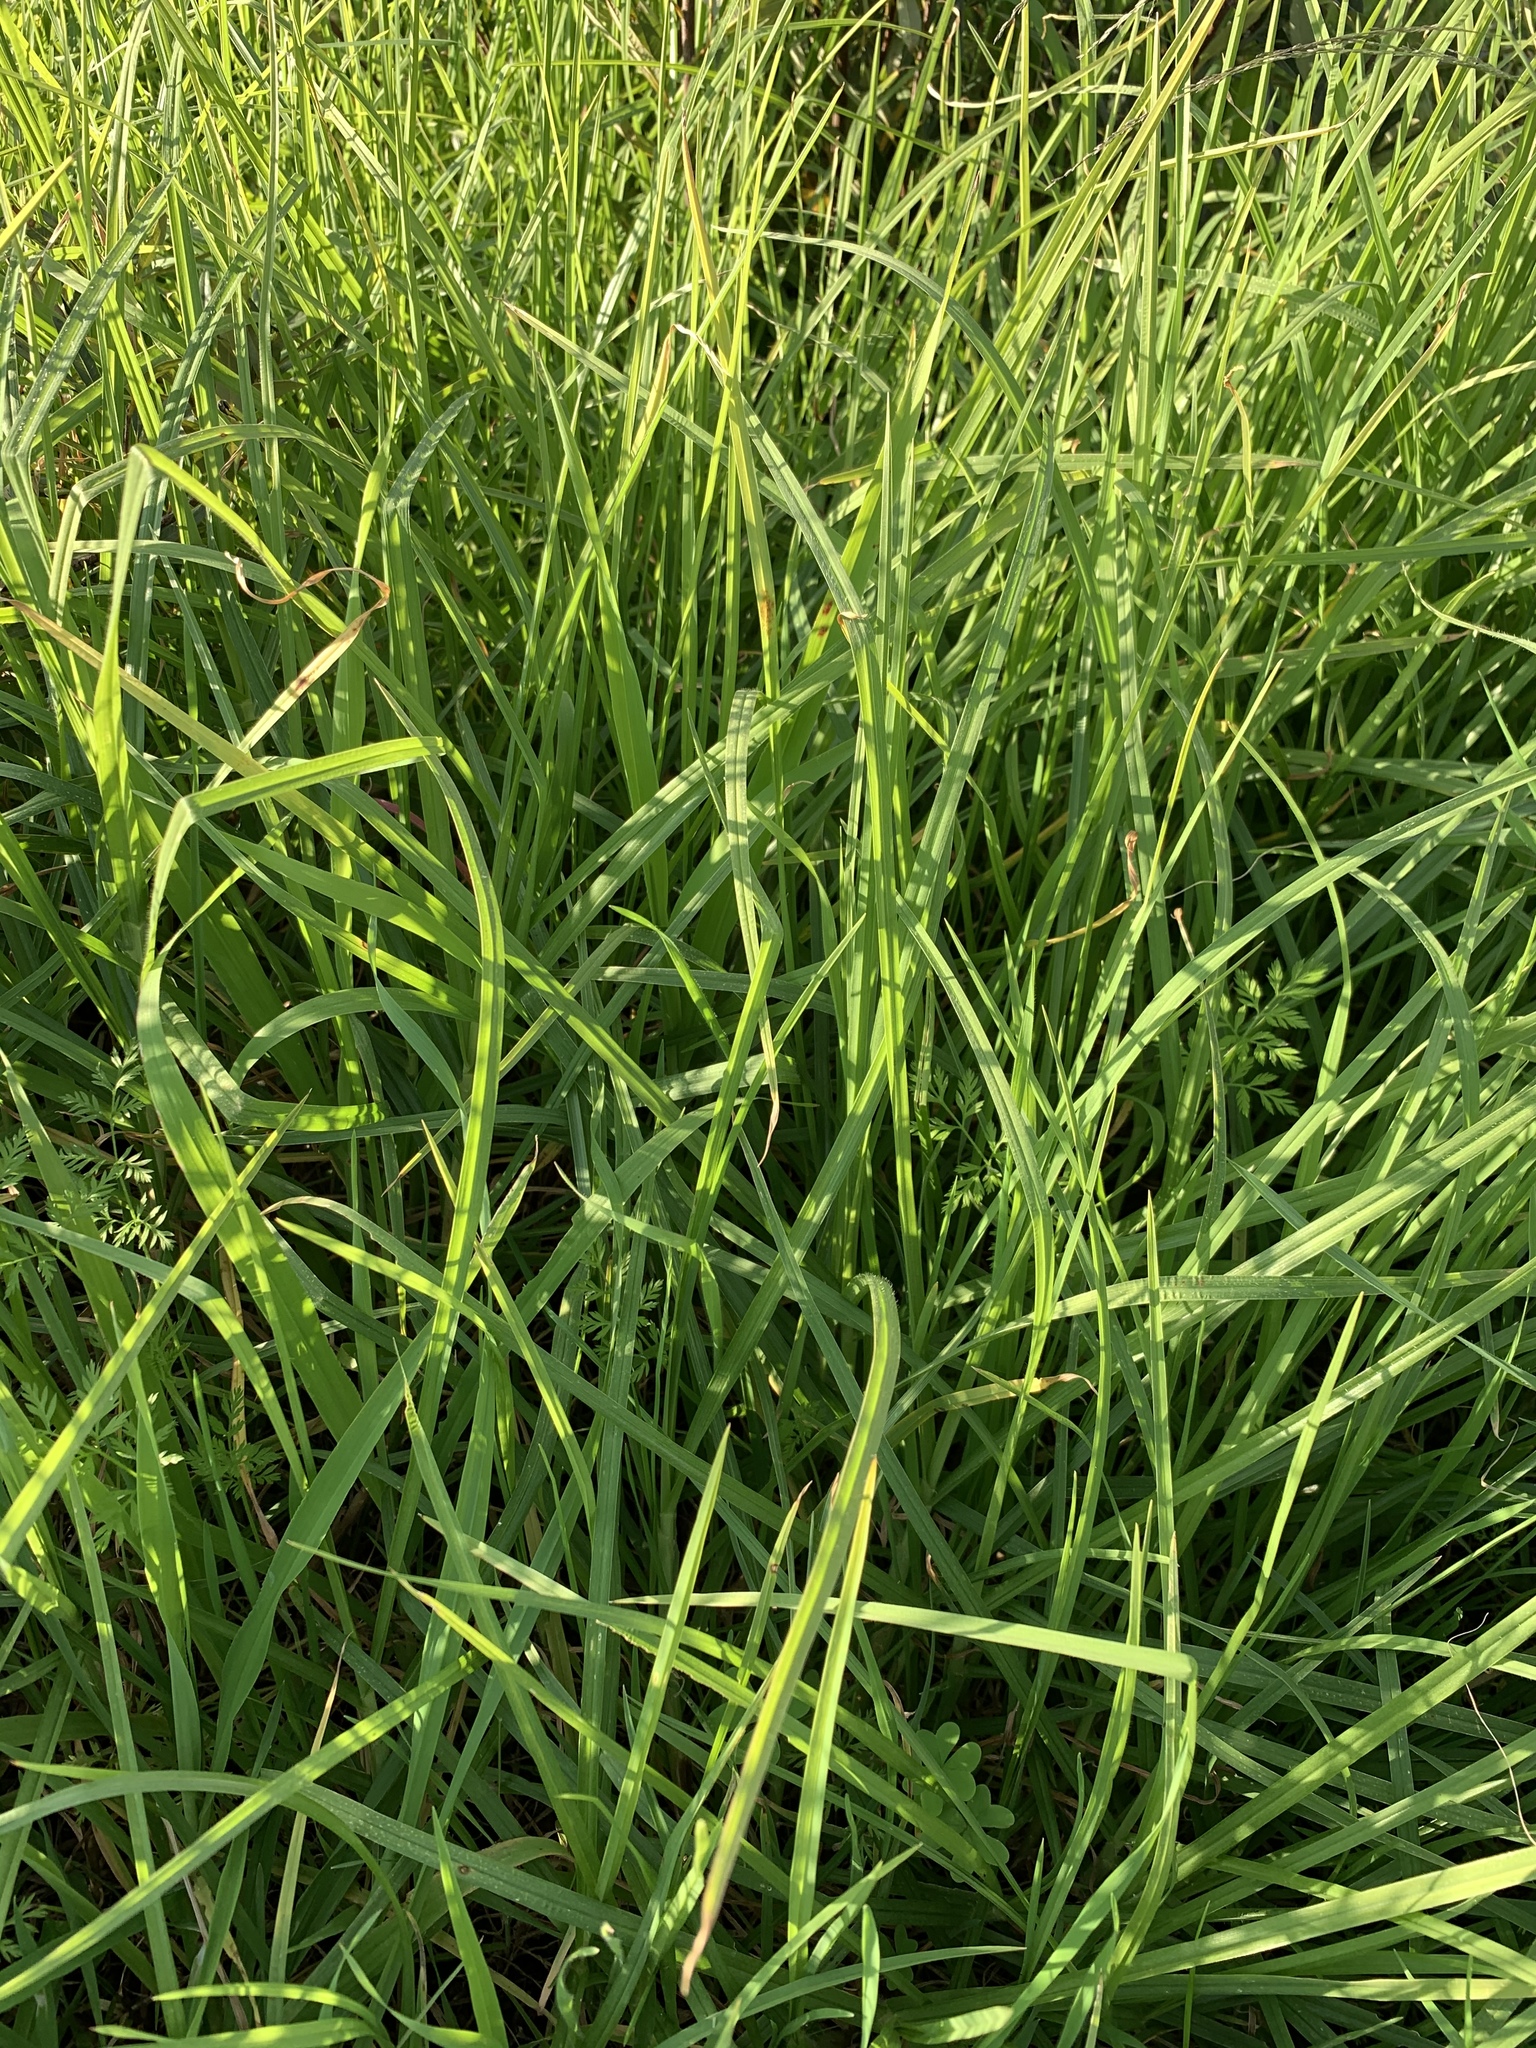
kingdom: Plantae
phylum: Tracheophyta
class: Liliopsida
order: Poales
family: Poaceae
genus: Cenchrus
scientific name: Cenchrus clandestinus
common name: Kikuyugrass
